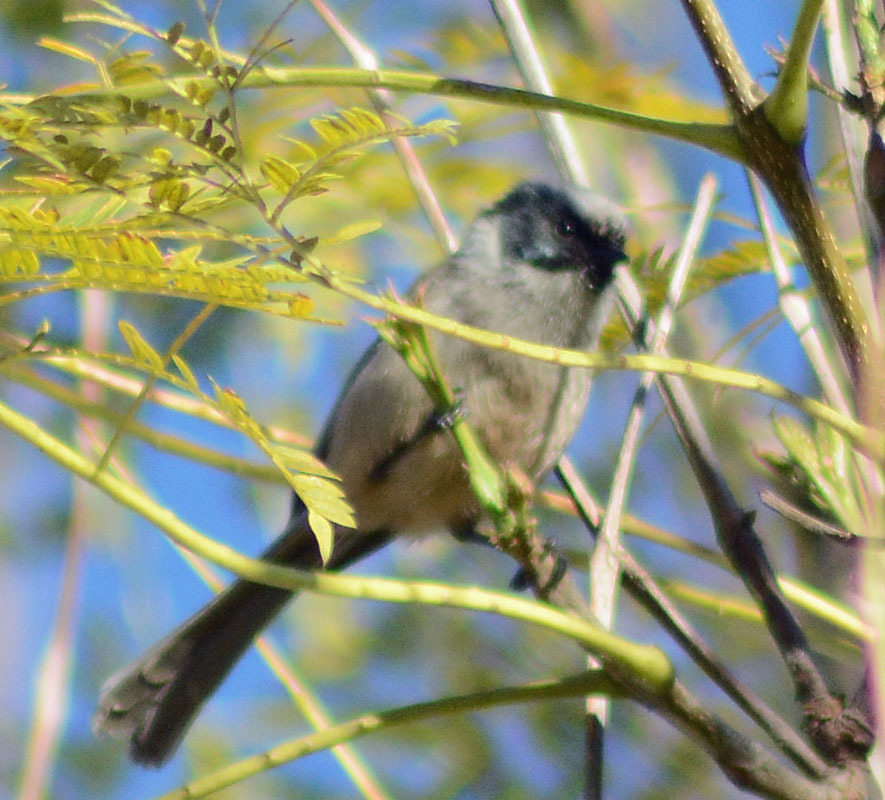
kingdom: Animalia
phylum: Chordata
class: Aves
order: Passeriformes
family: Aegithalidae
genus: Psaltriparus
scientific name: Psaltriparus minimus
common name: American bushtit
